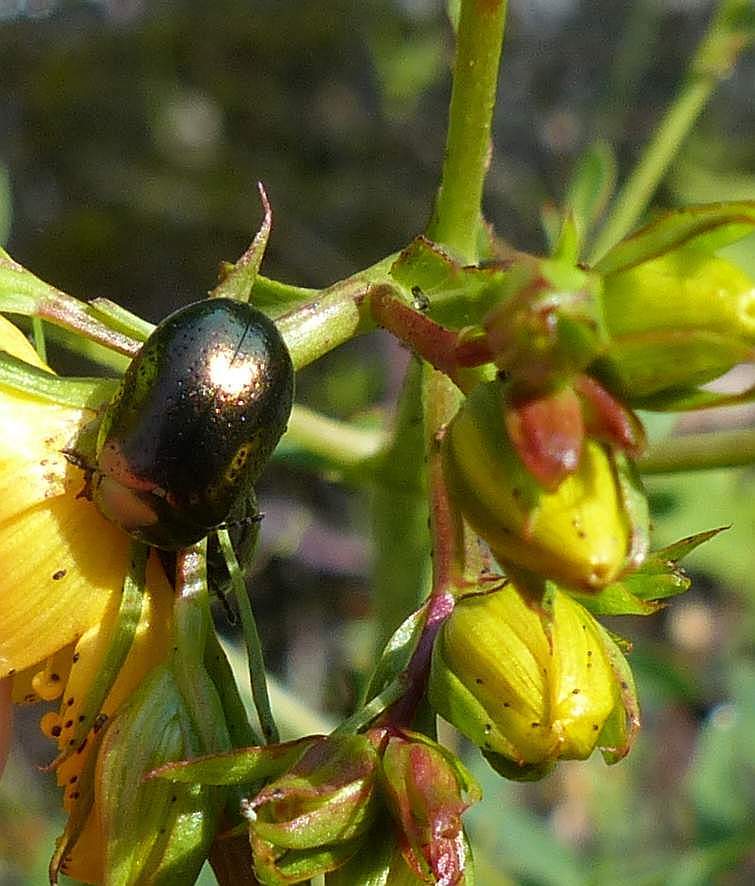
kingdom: Animalia
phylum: Arthropoda
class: Insecta
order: Coleoptera
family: Chrysomelidae
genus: Chrysolina
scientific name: Chrysolina hyperici
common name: St. johnswort beetle
